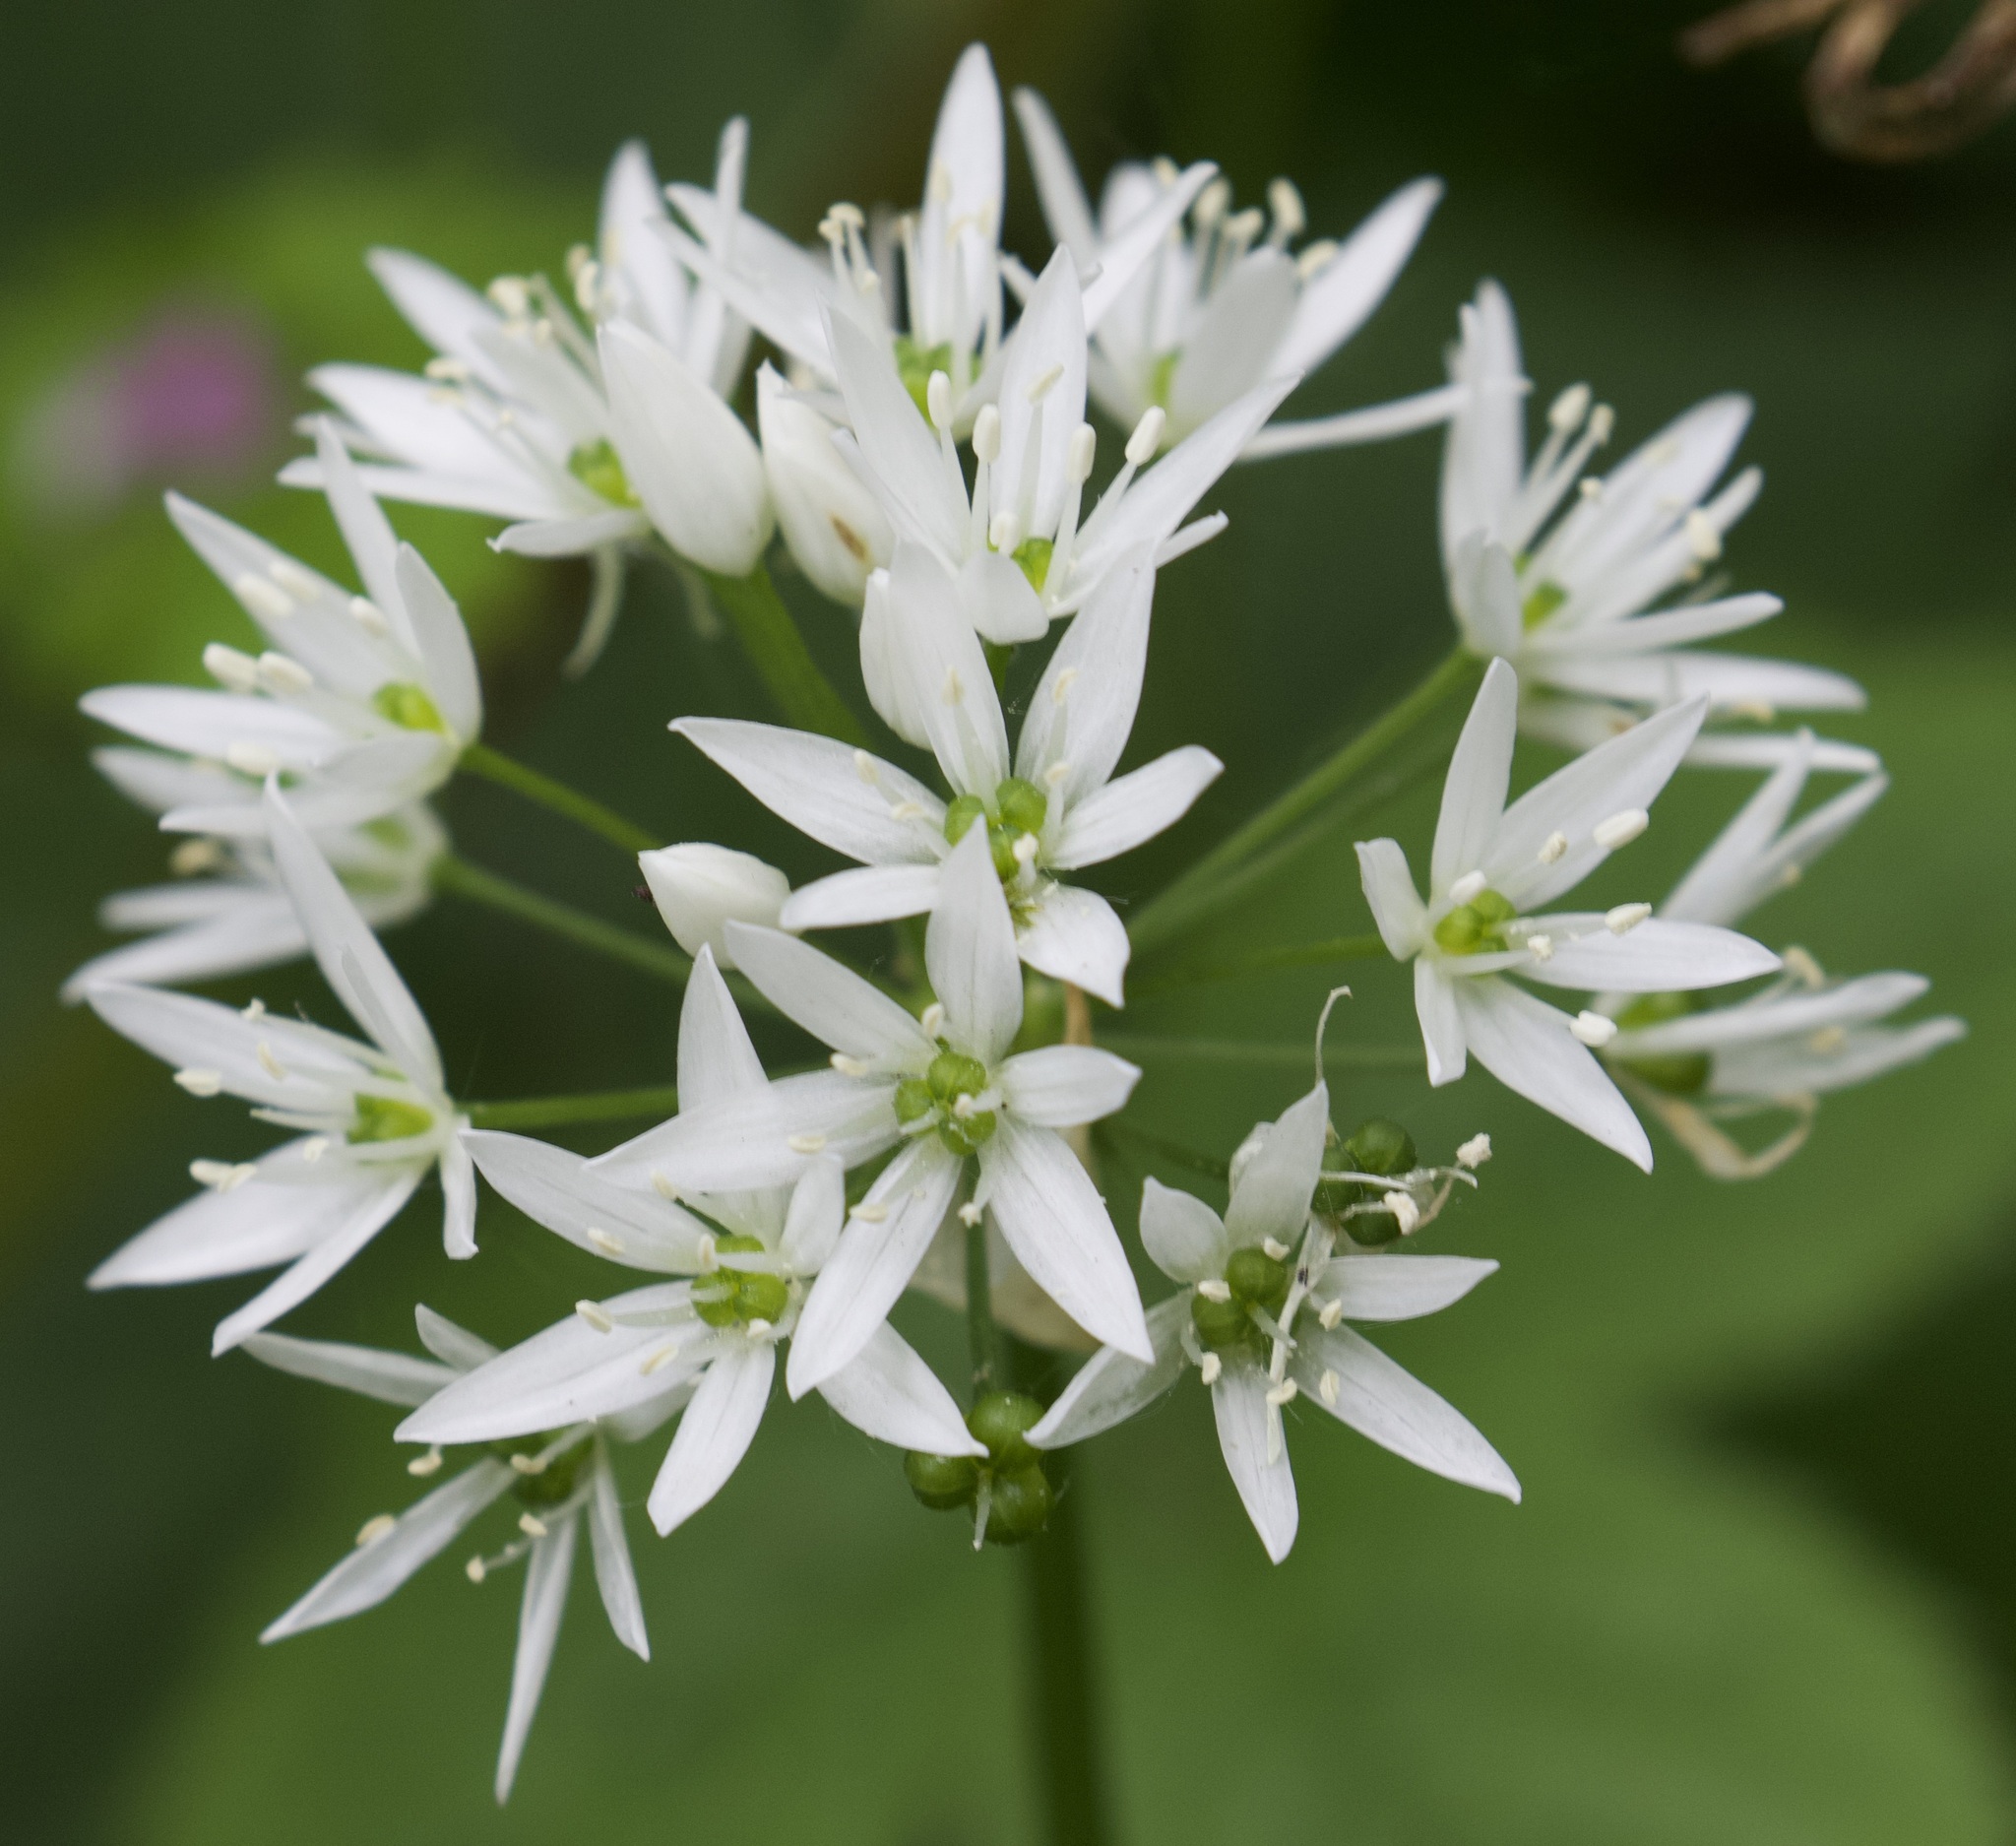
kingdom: Plantae
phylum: Tracheophyta
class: Liliopsida
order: Asparagales
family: Amaryllidaceae
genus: Allium
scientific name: Allium ursinum
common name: Ramsons
